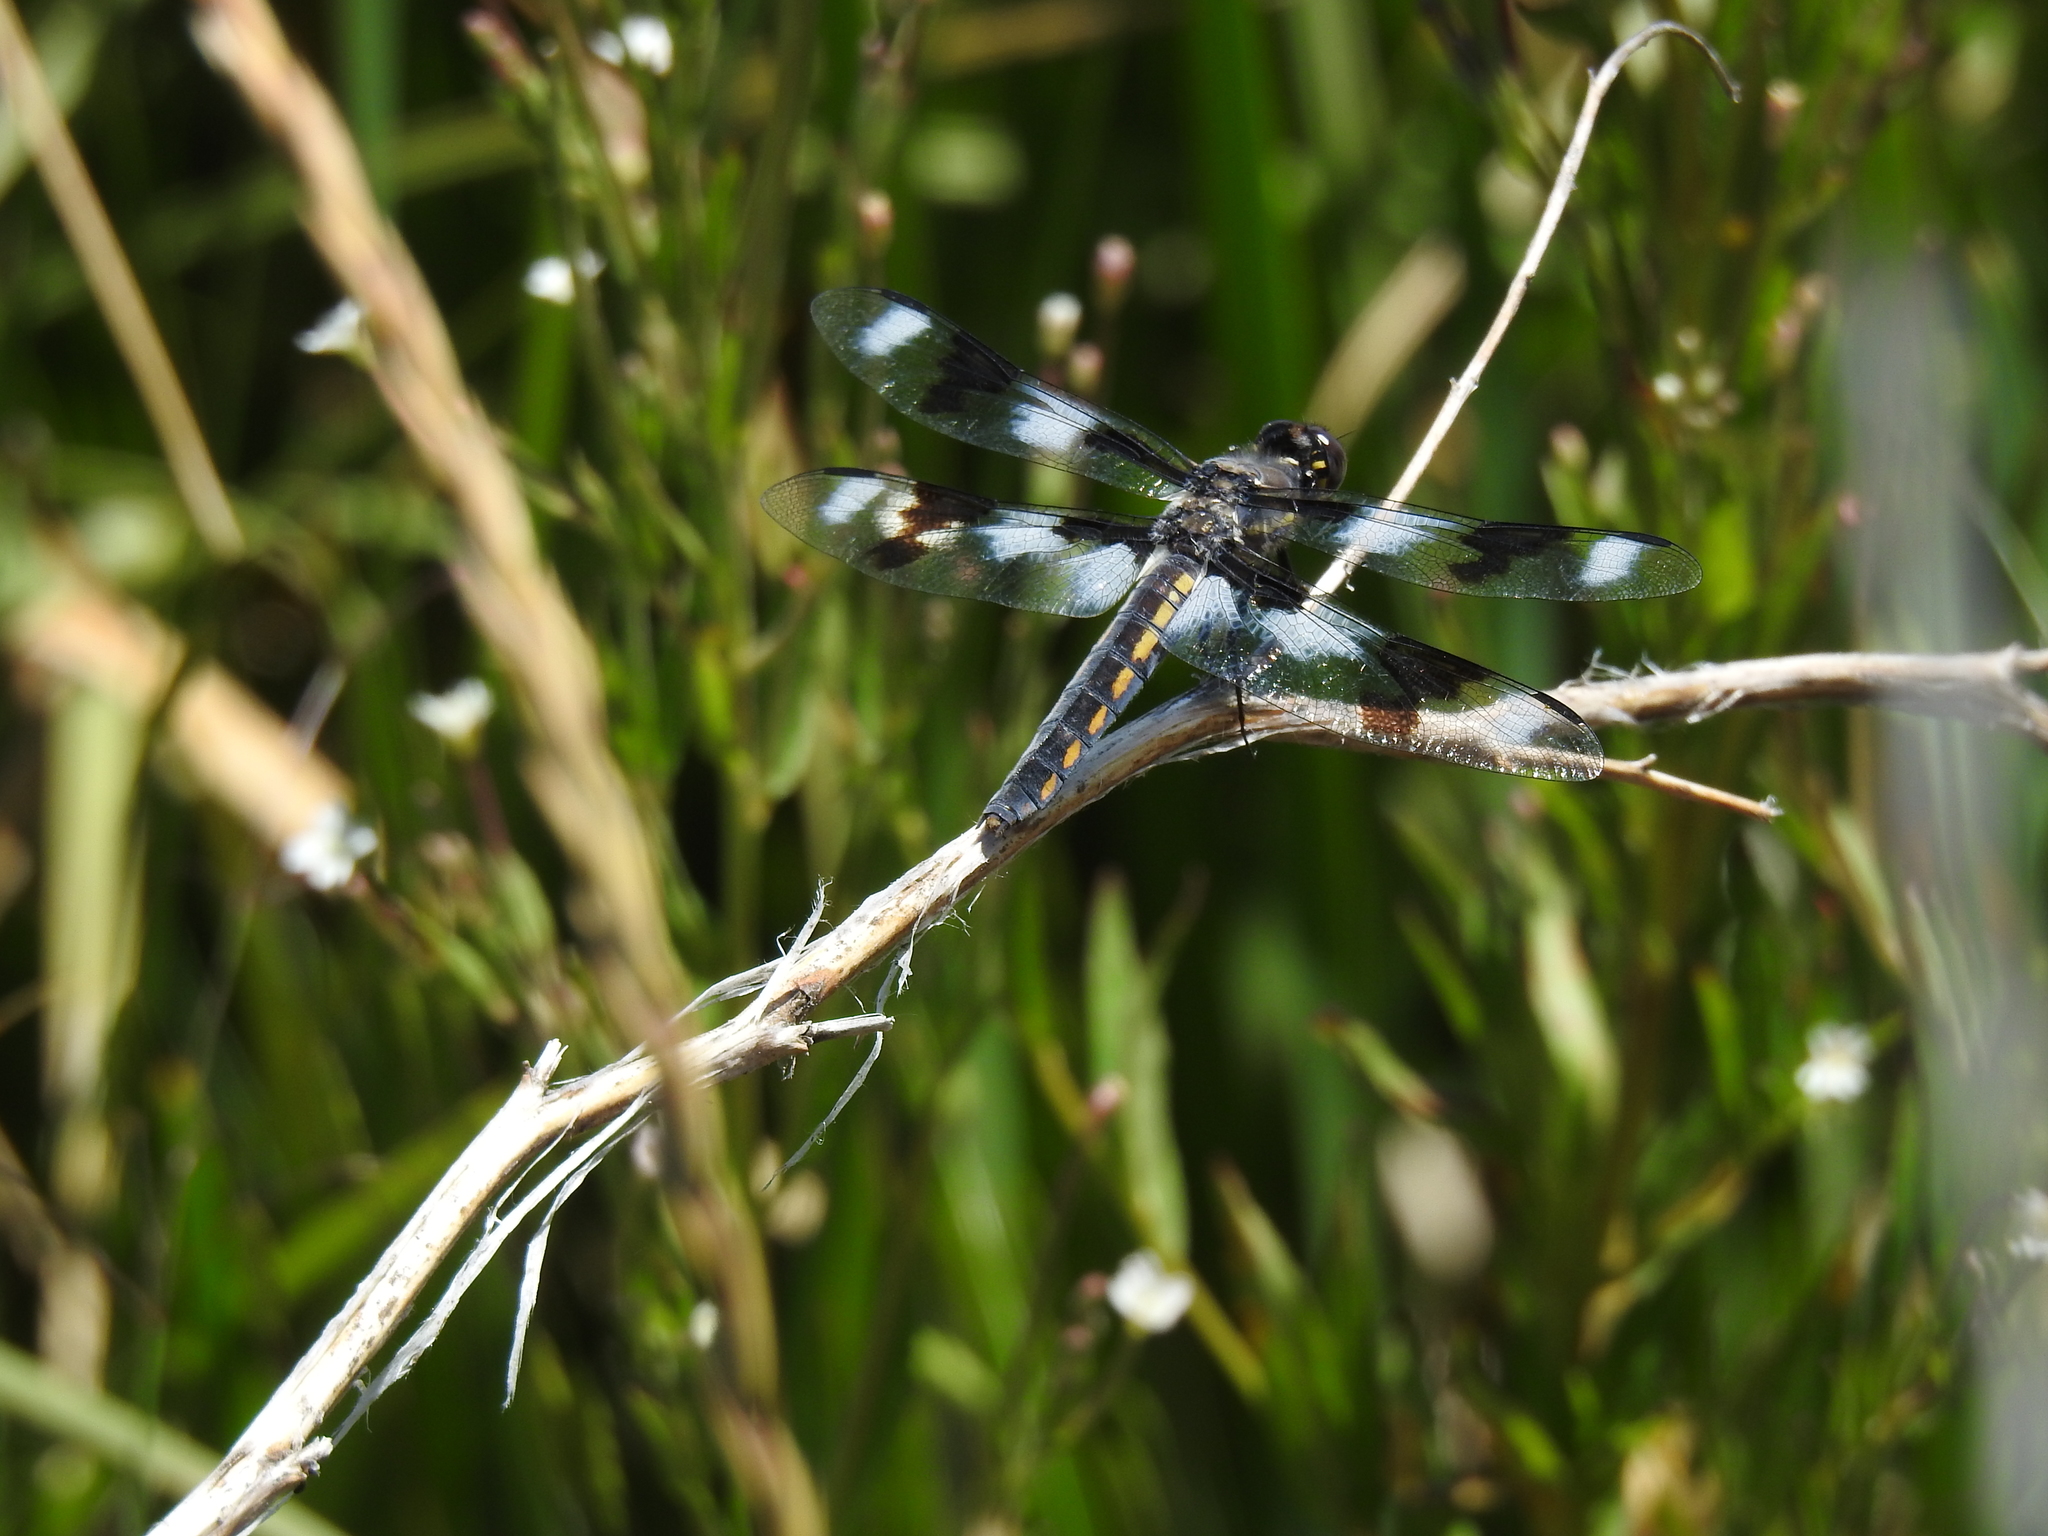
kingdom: Animalia
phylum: Arthropoda
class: Insecta
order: Odonata
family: Libellulidae
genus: Libellula
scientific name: Libellula forensis
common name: Eight-spotted skimmer
